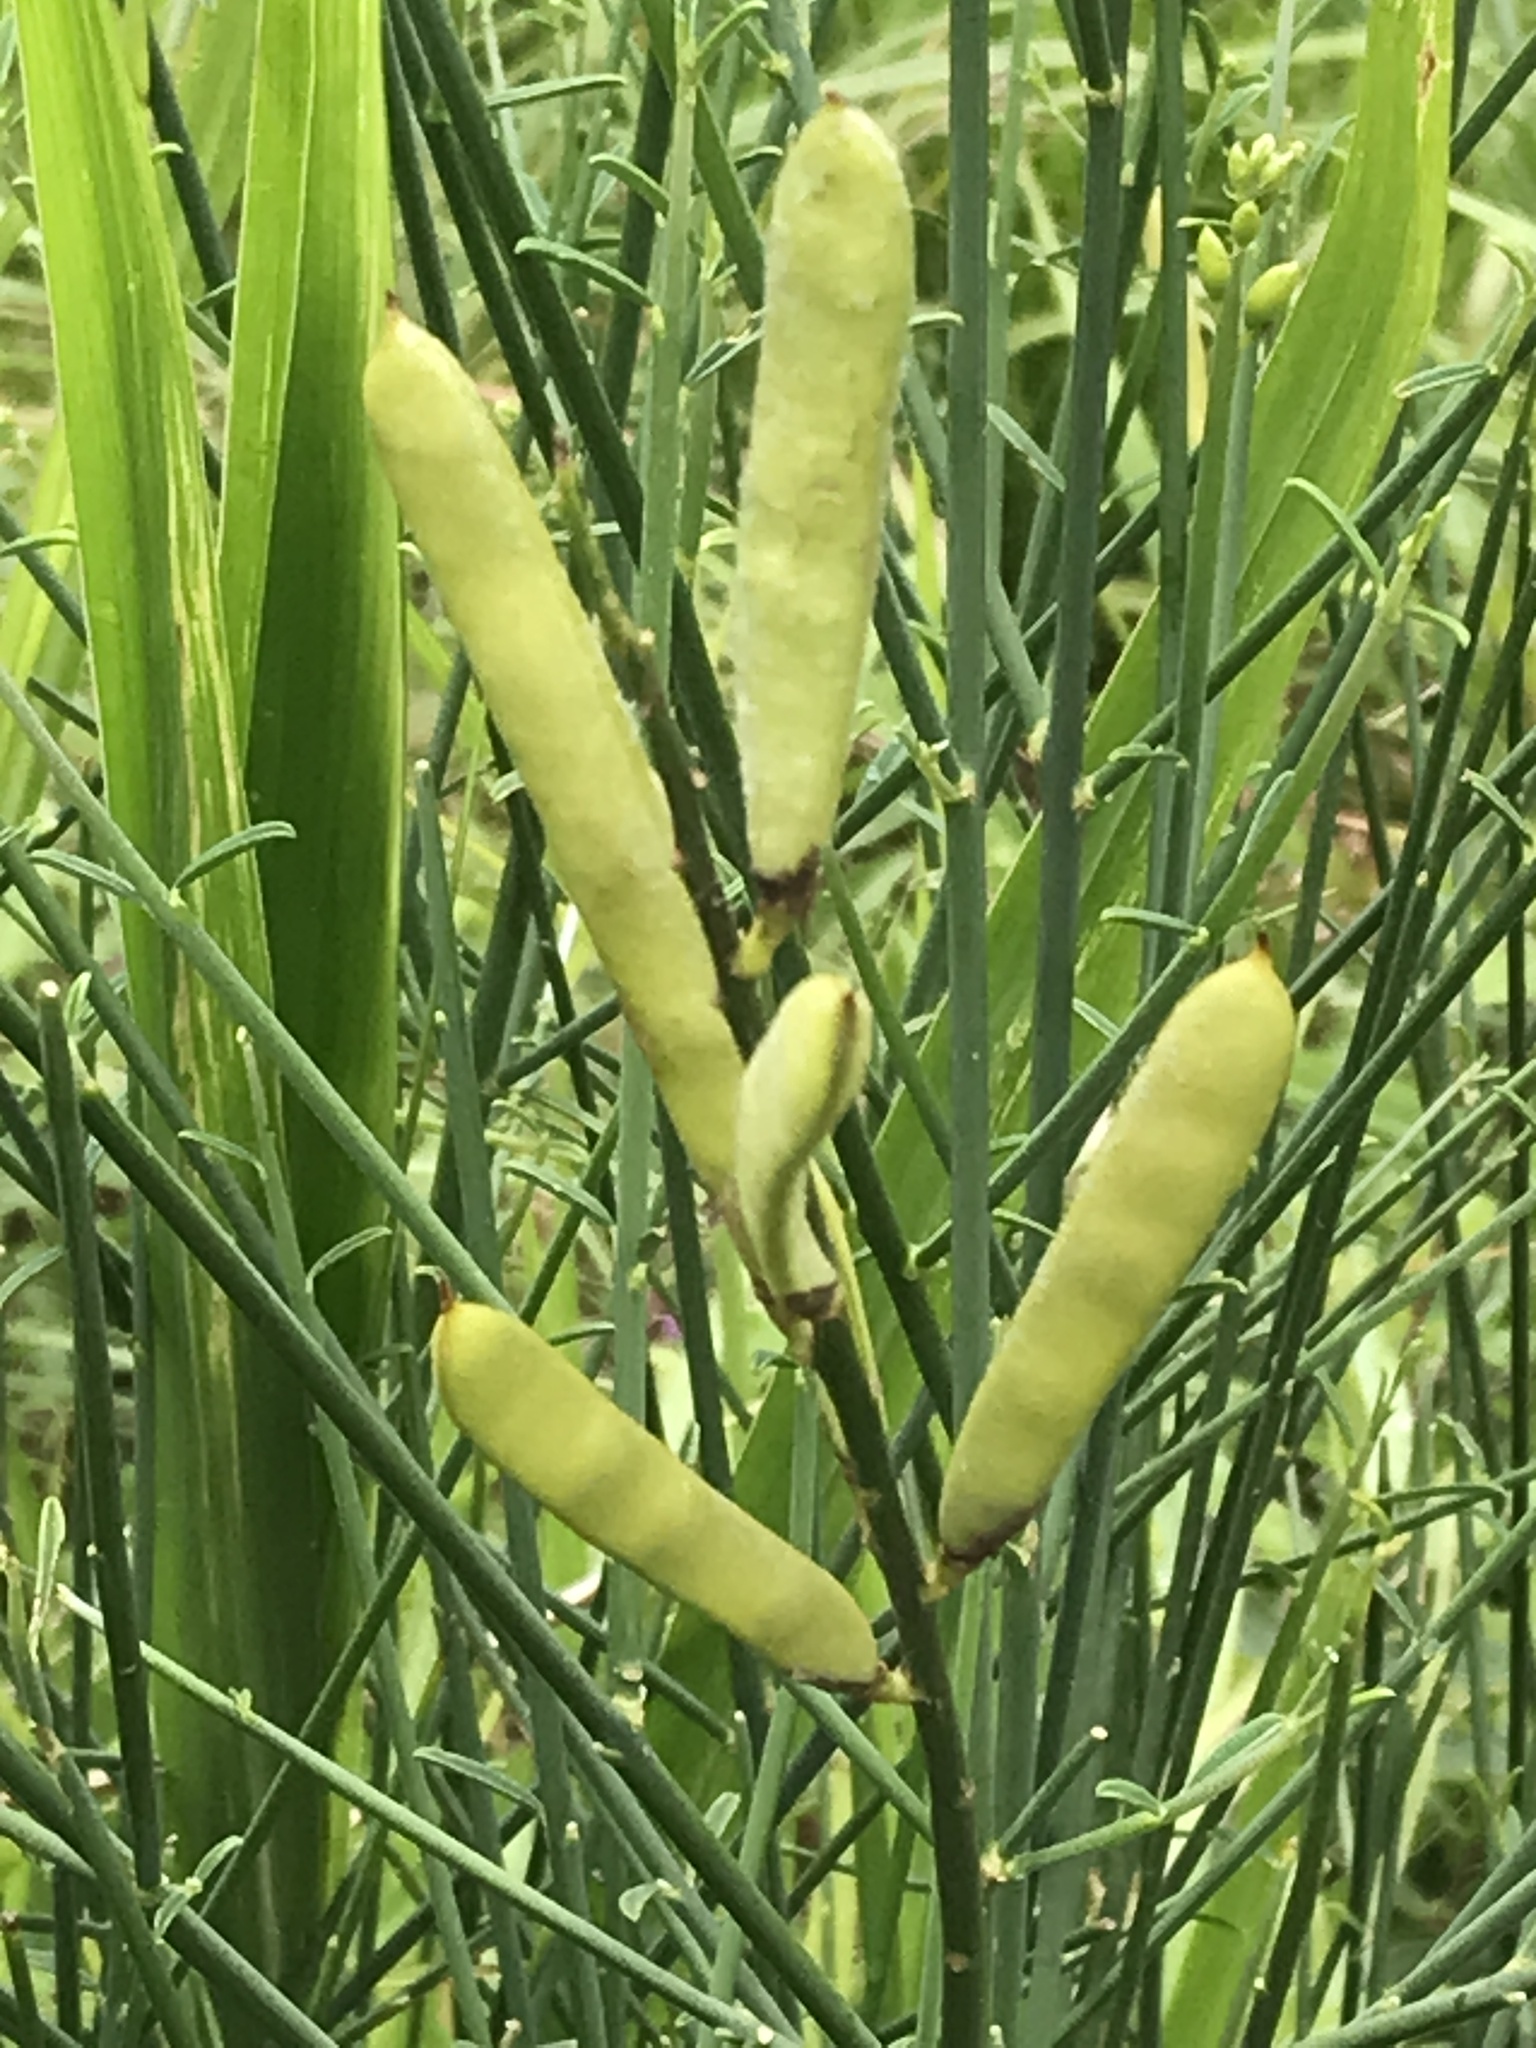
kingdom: Plantae
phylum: Tracheophyta
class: Magnoliopsida
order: Fabales
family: Fabaceae
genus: Spartium
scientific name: Spartium junceum
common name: Spanish broom
